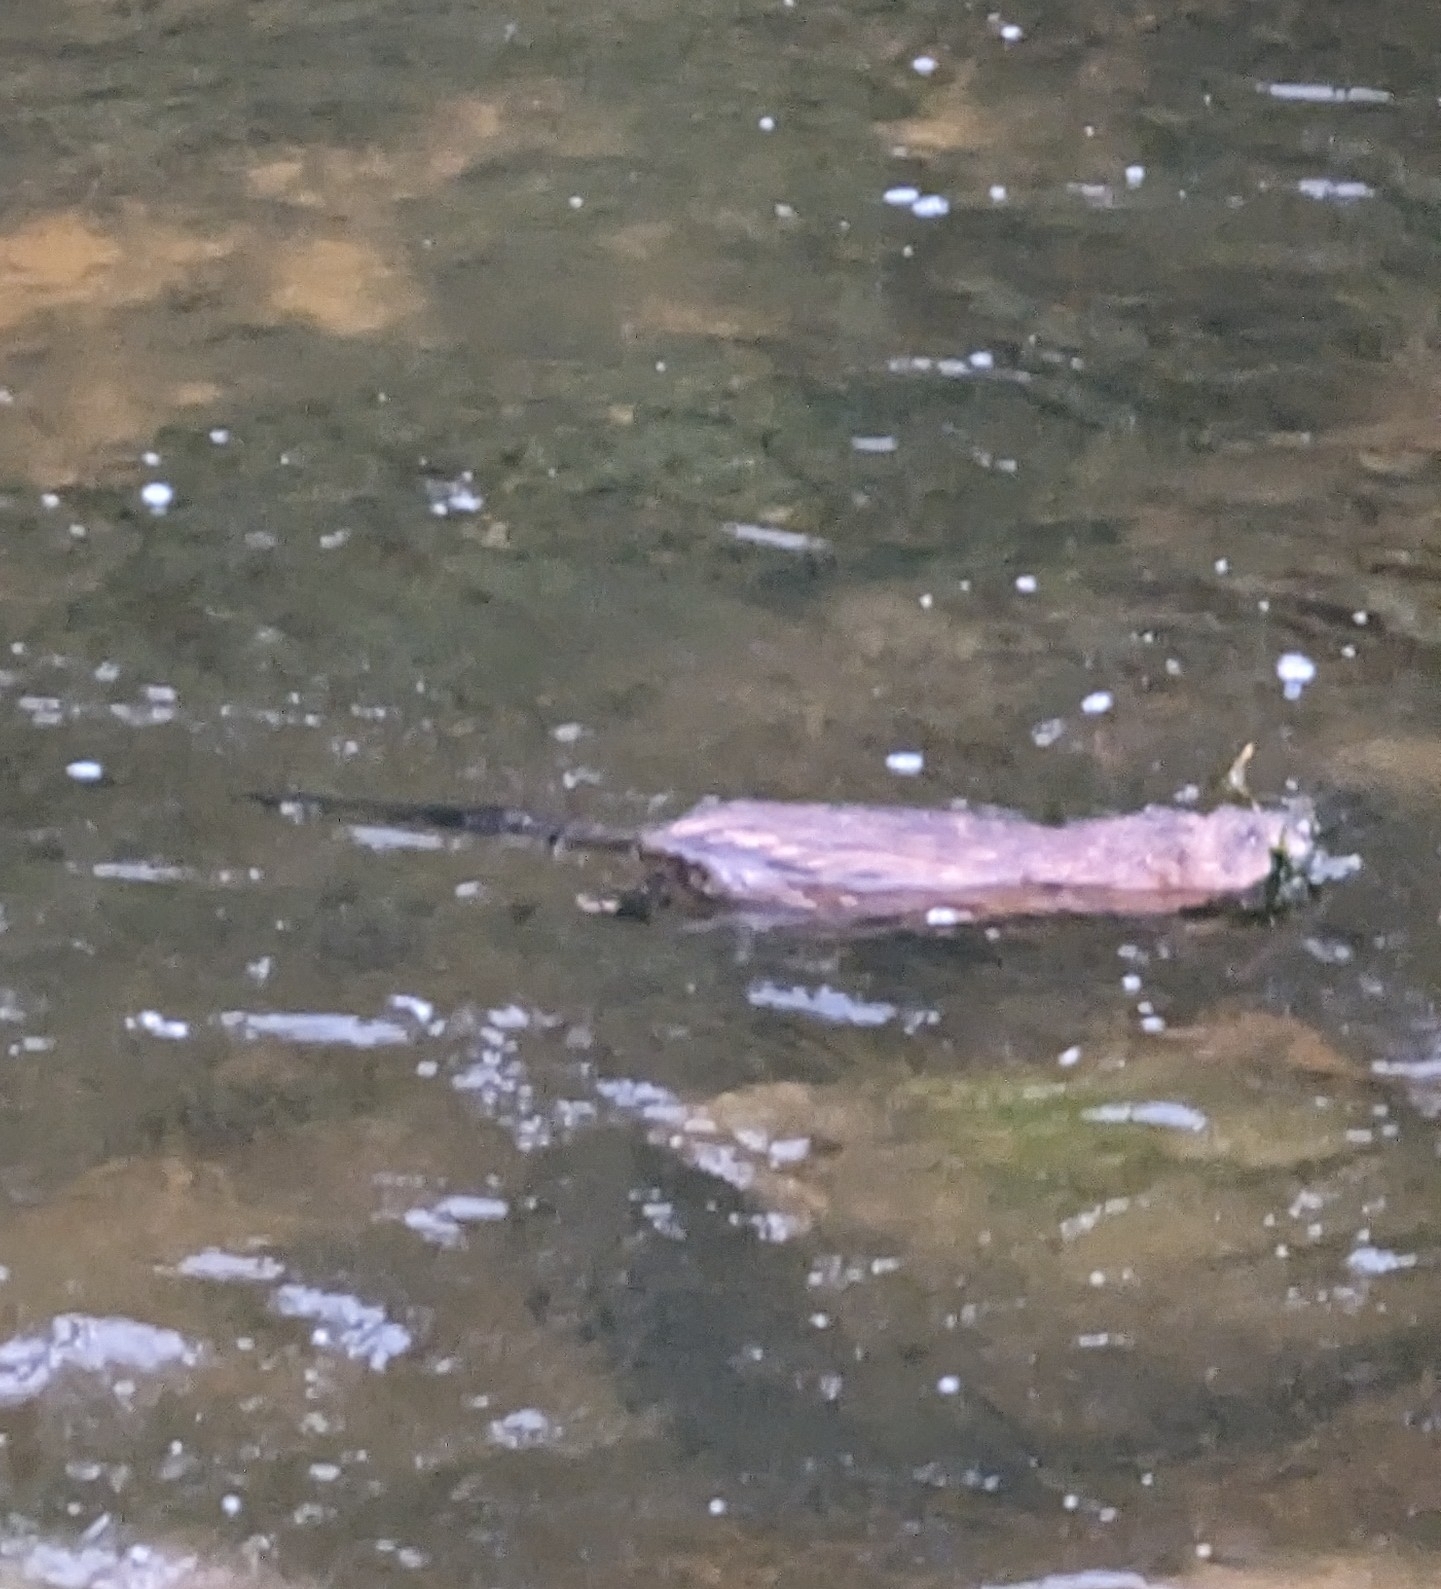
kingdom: Animalia
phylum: Chordata
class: Mammalia
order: Rodentia
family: Cricetidae
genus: Ondatra
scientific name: Ondatra zibethicus
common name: Muskrat
